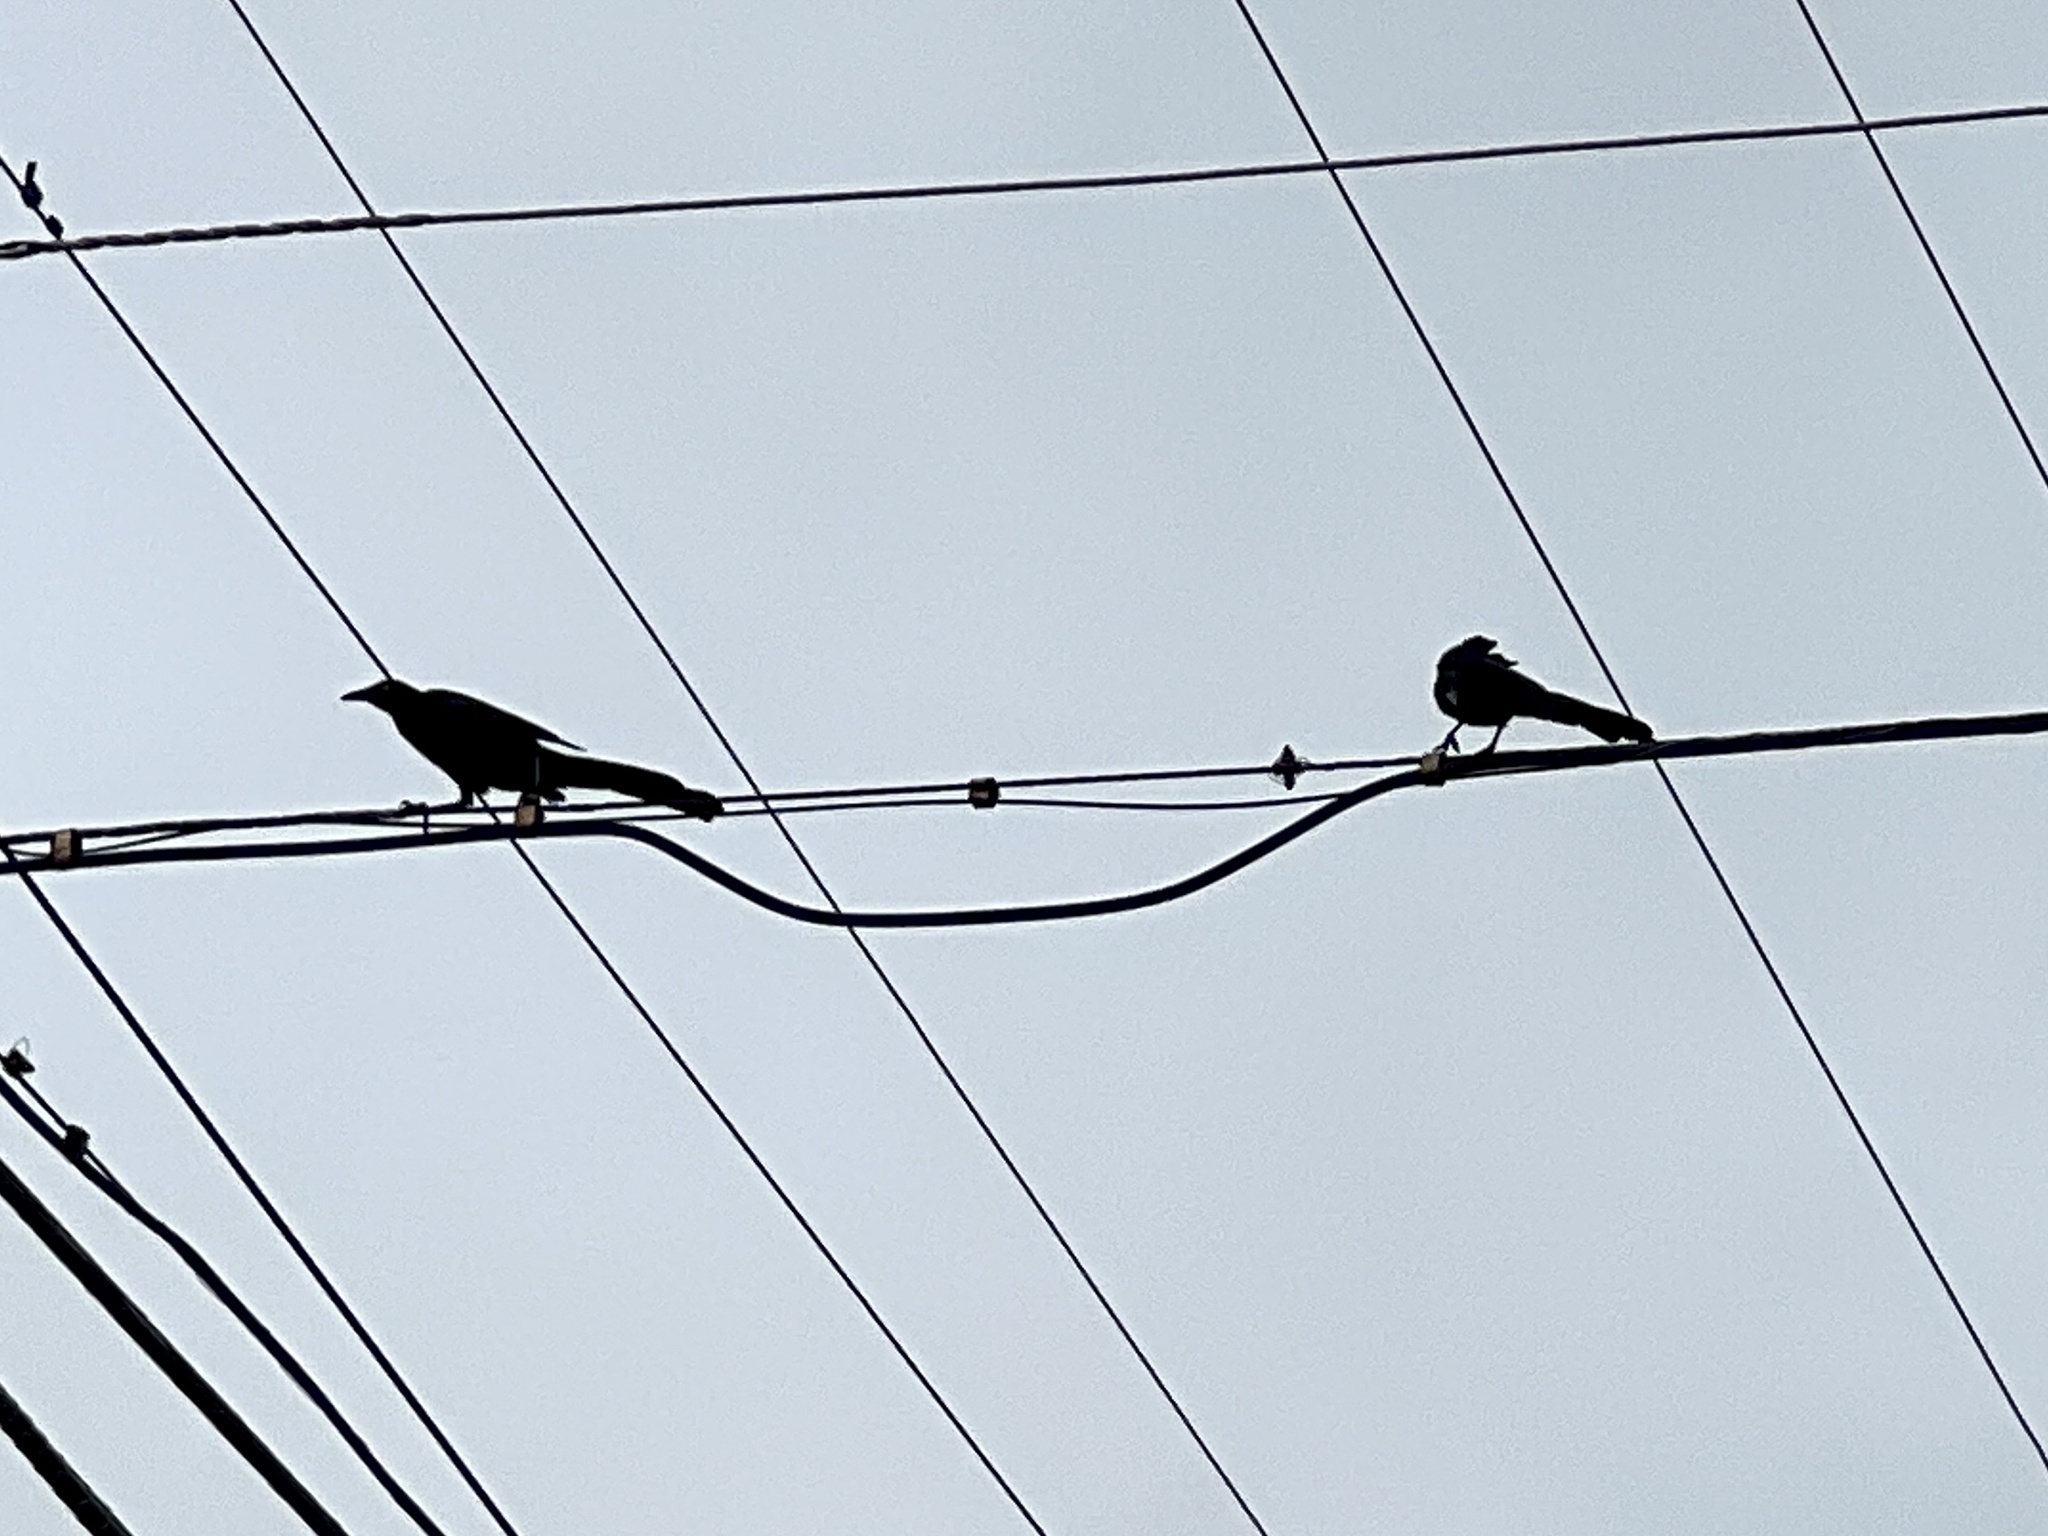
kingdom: Animalia
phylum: Chordata
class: Aves
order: Passeriformes
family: Icteridae
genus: Quiscalus
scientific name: Quiscalus mexicanus
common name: Great-tailed grackle
